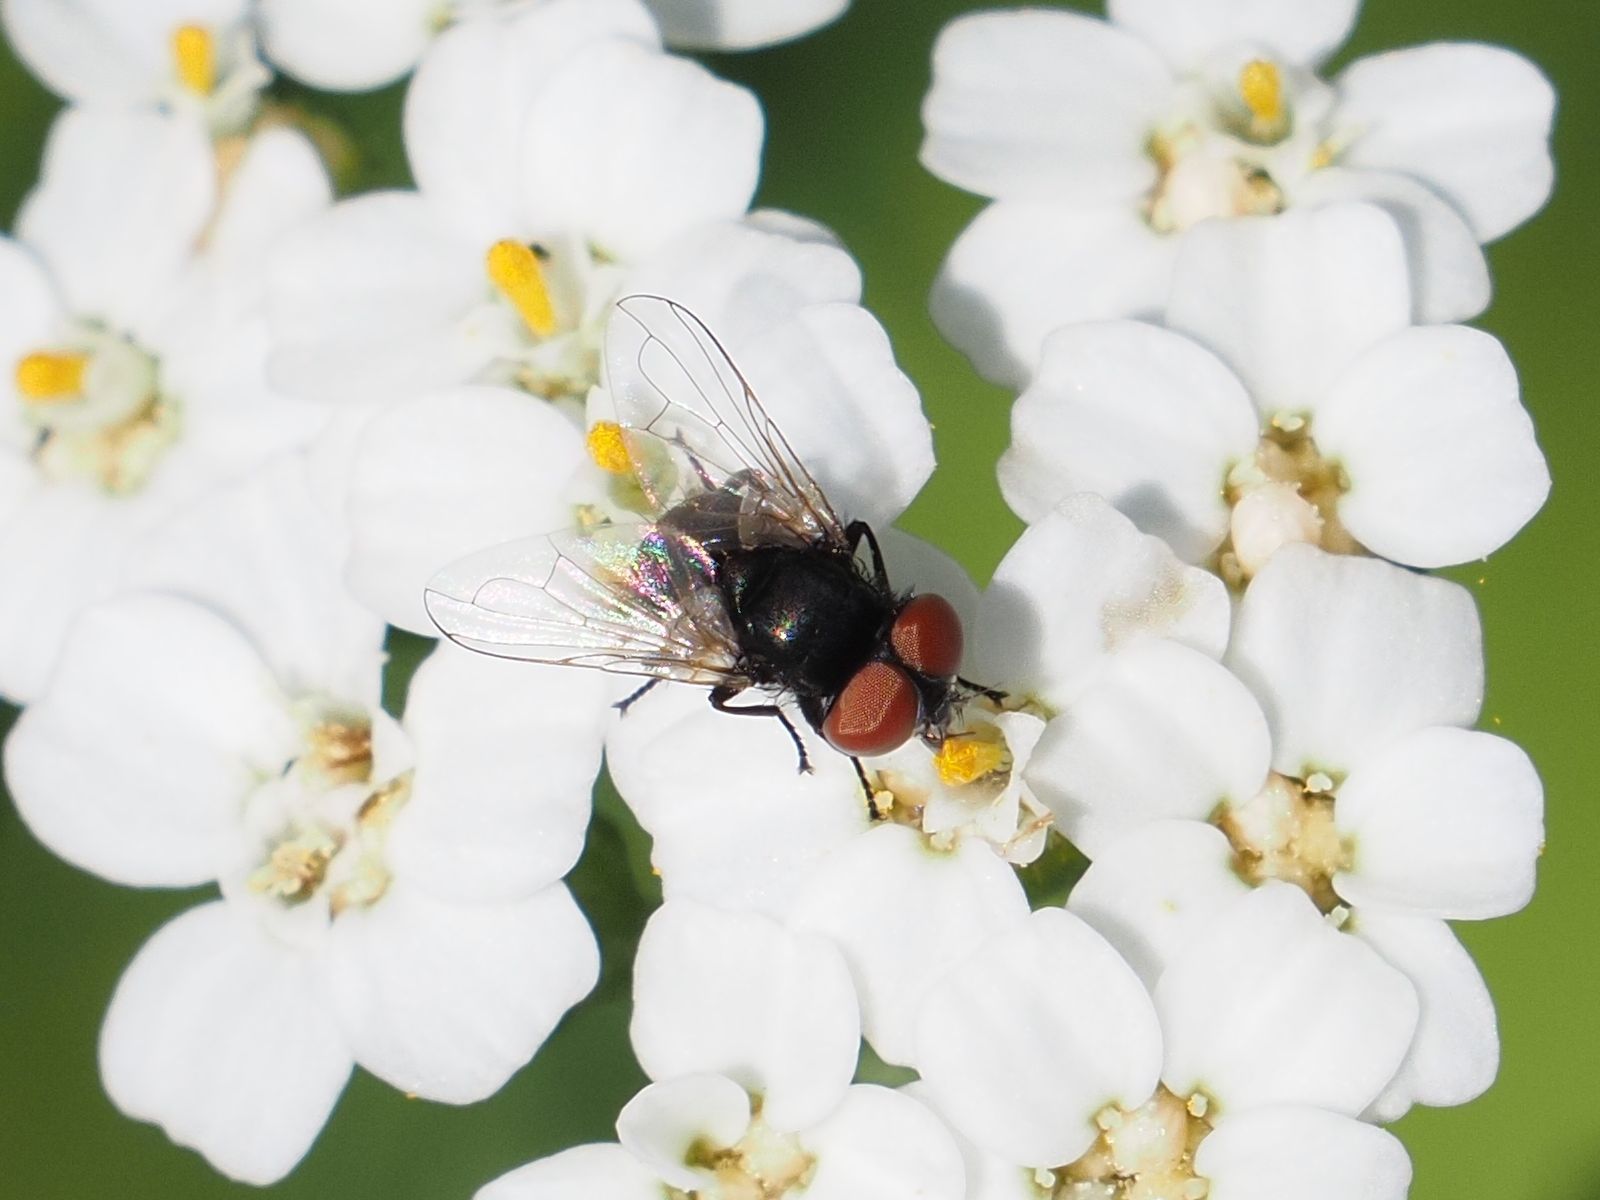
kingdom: Animalia
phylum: Arthropoda
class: Insecta
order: Diptera
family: Tachinidae
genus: Phasia
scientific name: Phasia pusilla
